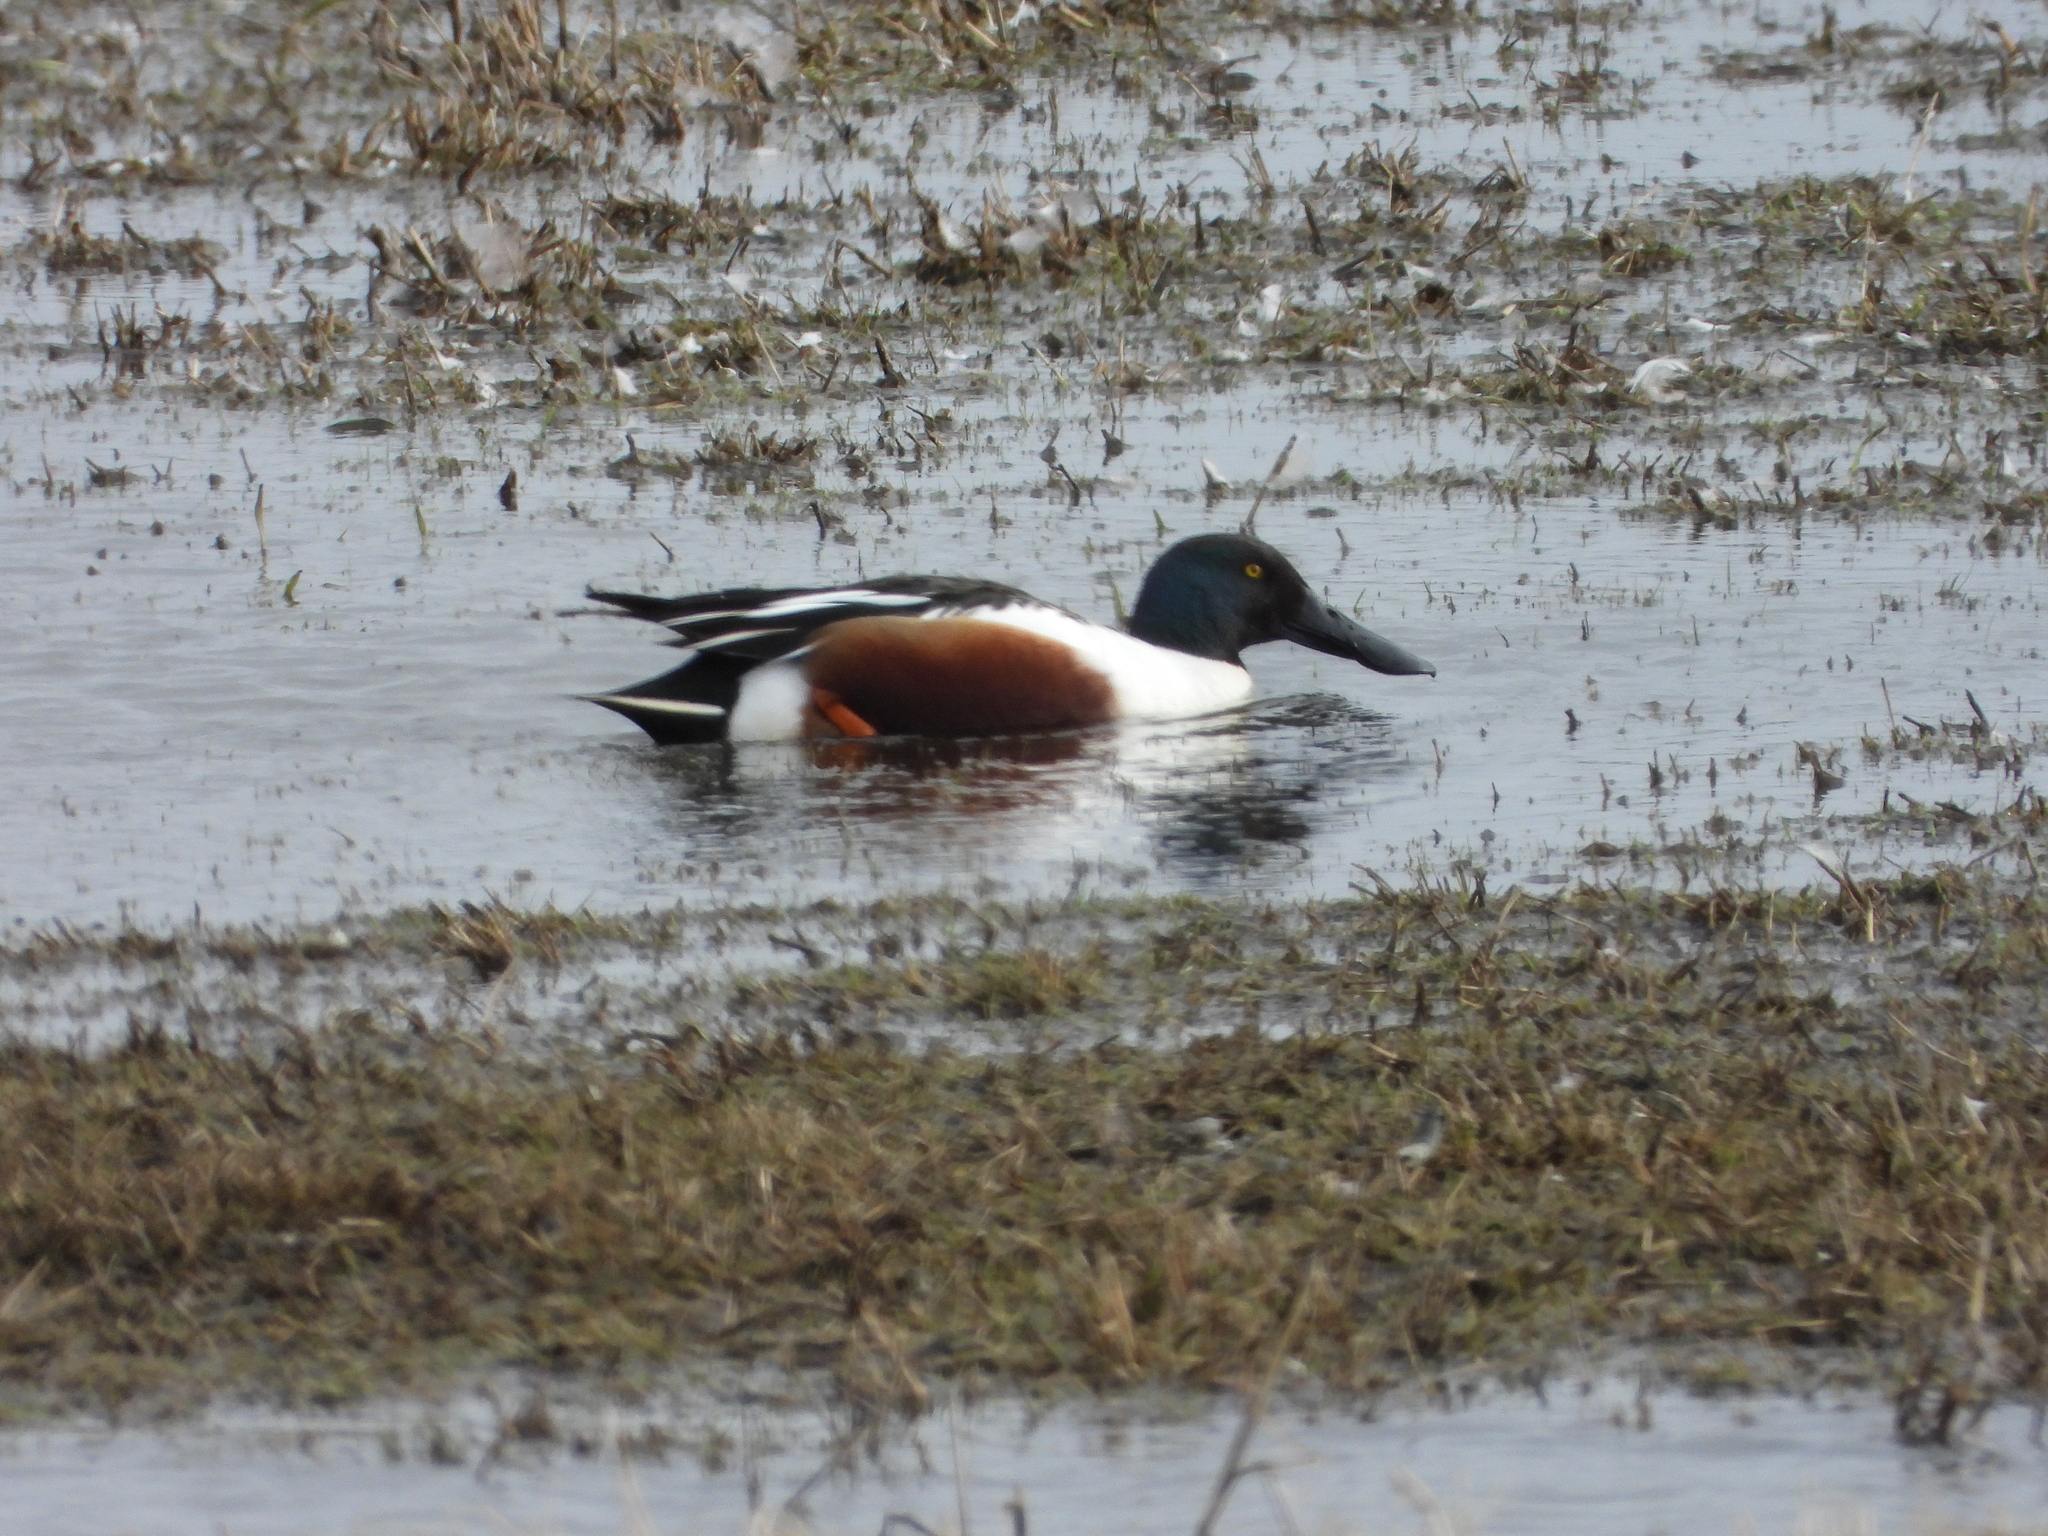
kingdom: Animalia
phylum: Chordata
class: Aves
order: Anseriformes
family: Anatidae
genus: Spatula
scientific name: Spatula clypeata
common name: Northern shoveler
